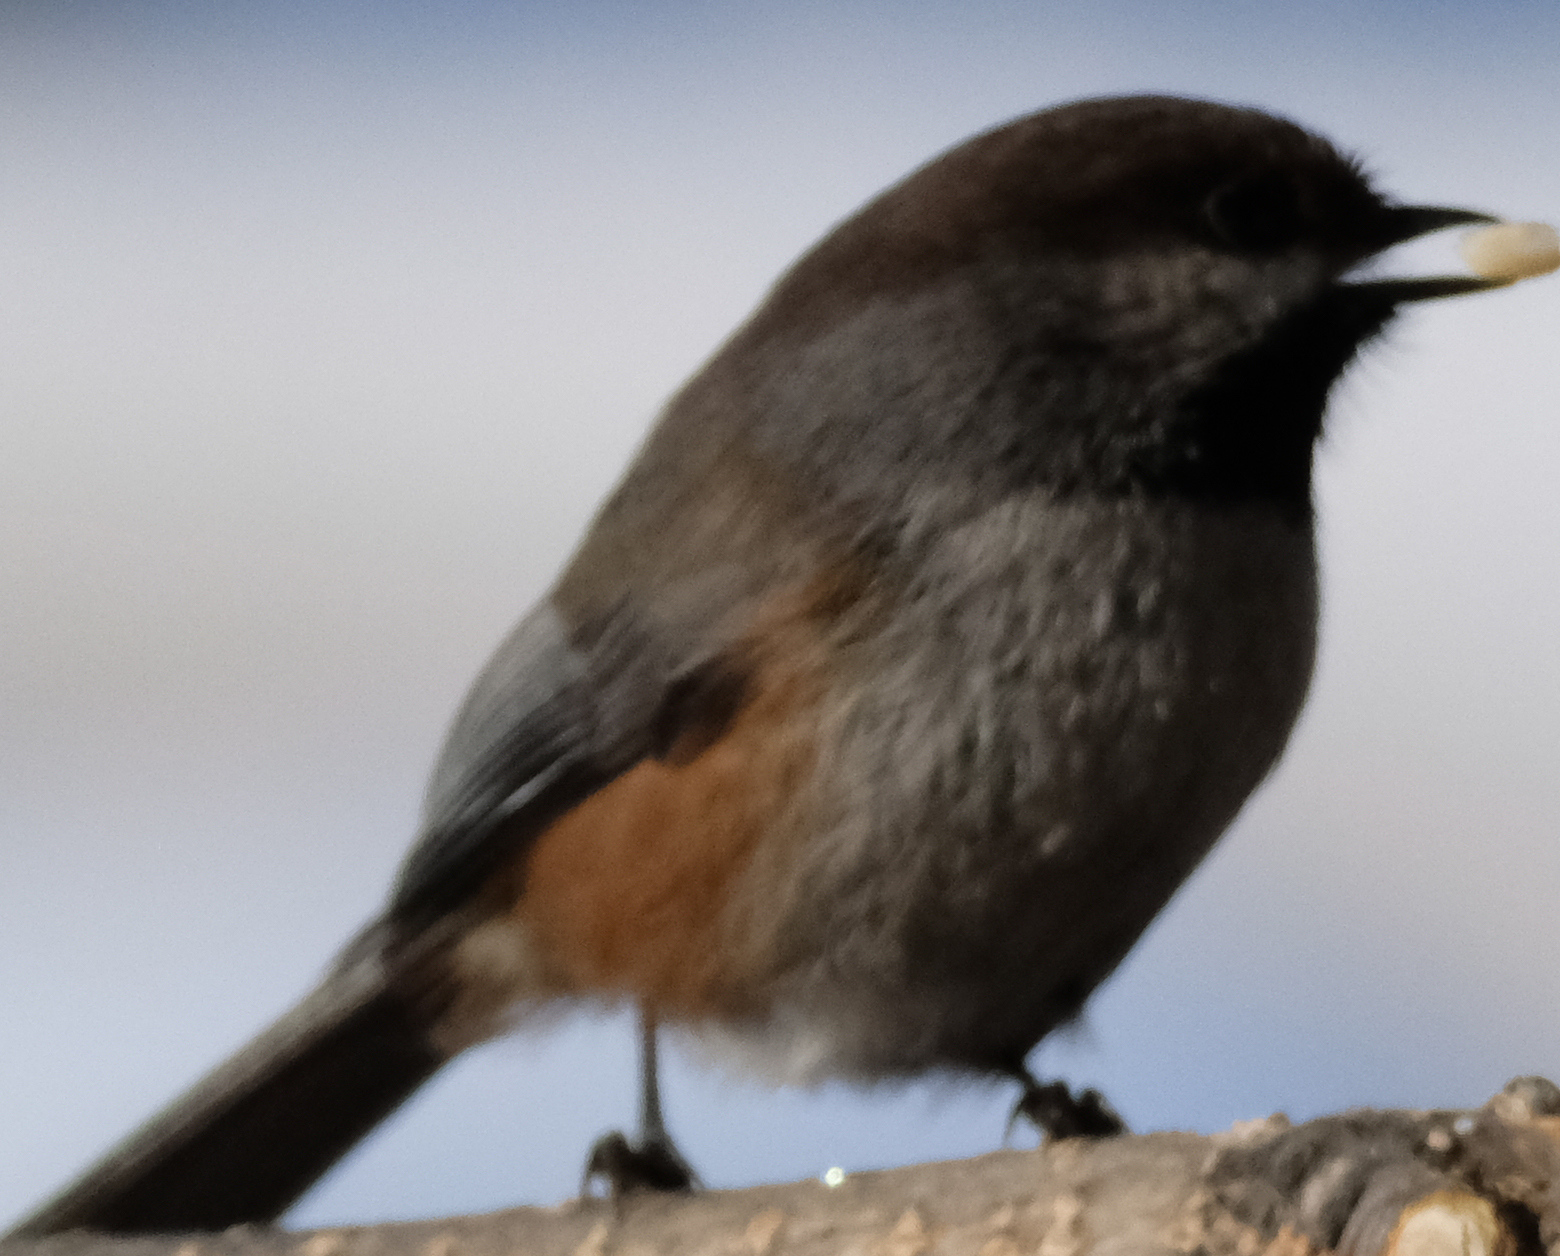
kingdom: Animalia
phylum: Chordata
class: Aves
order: Passeriformes
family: Paridae
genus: Poecile
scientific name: Poecile hudsonicus
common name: Boreal chickadee
